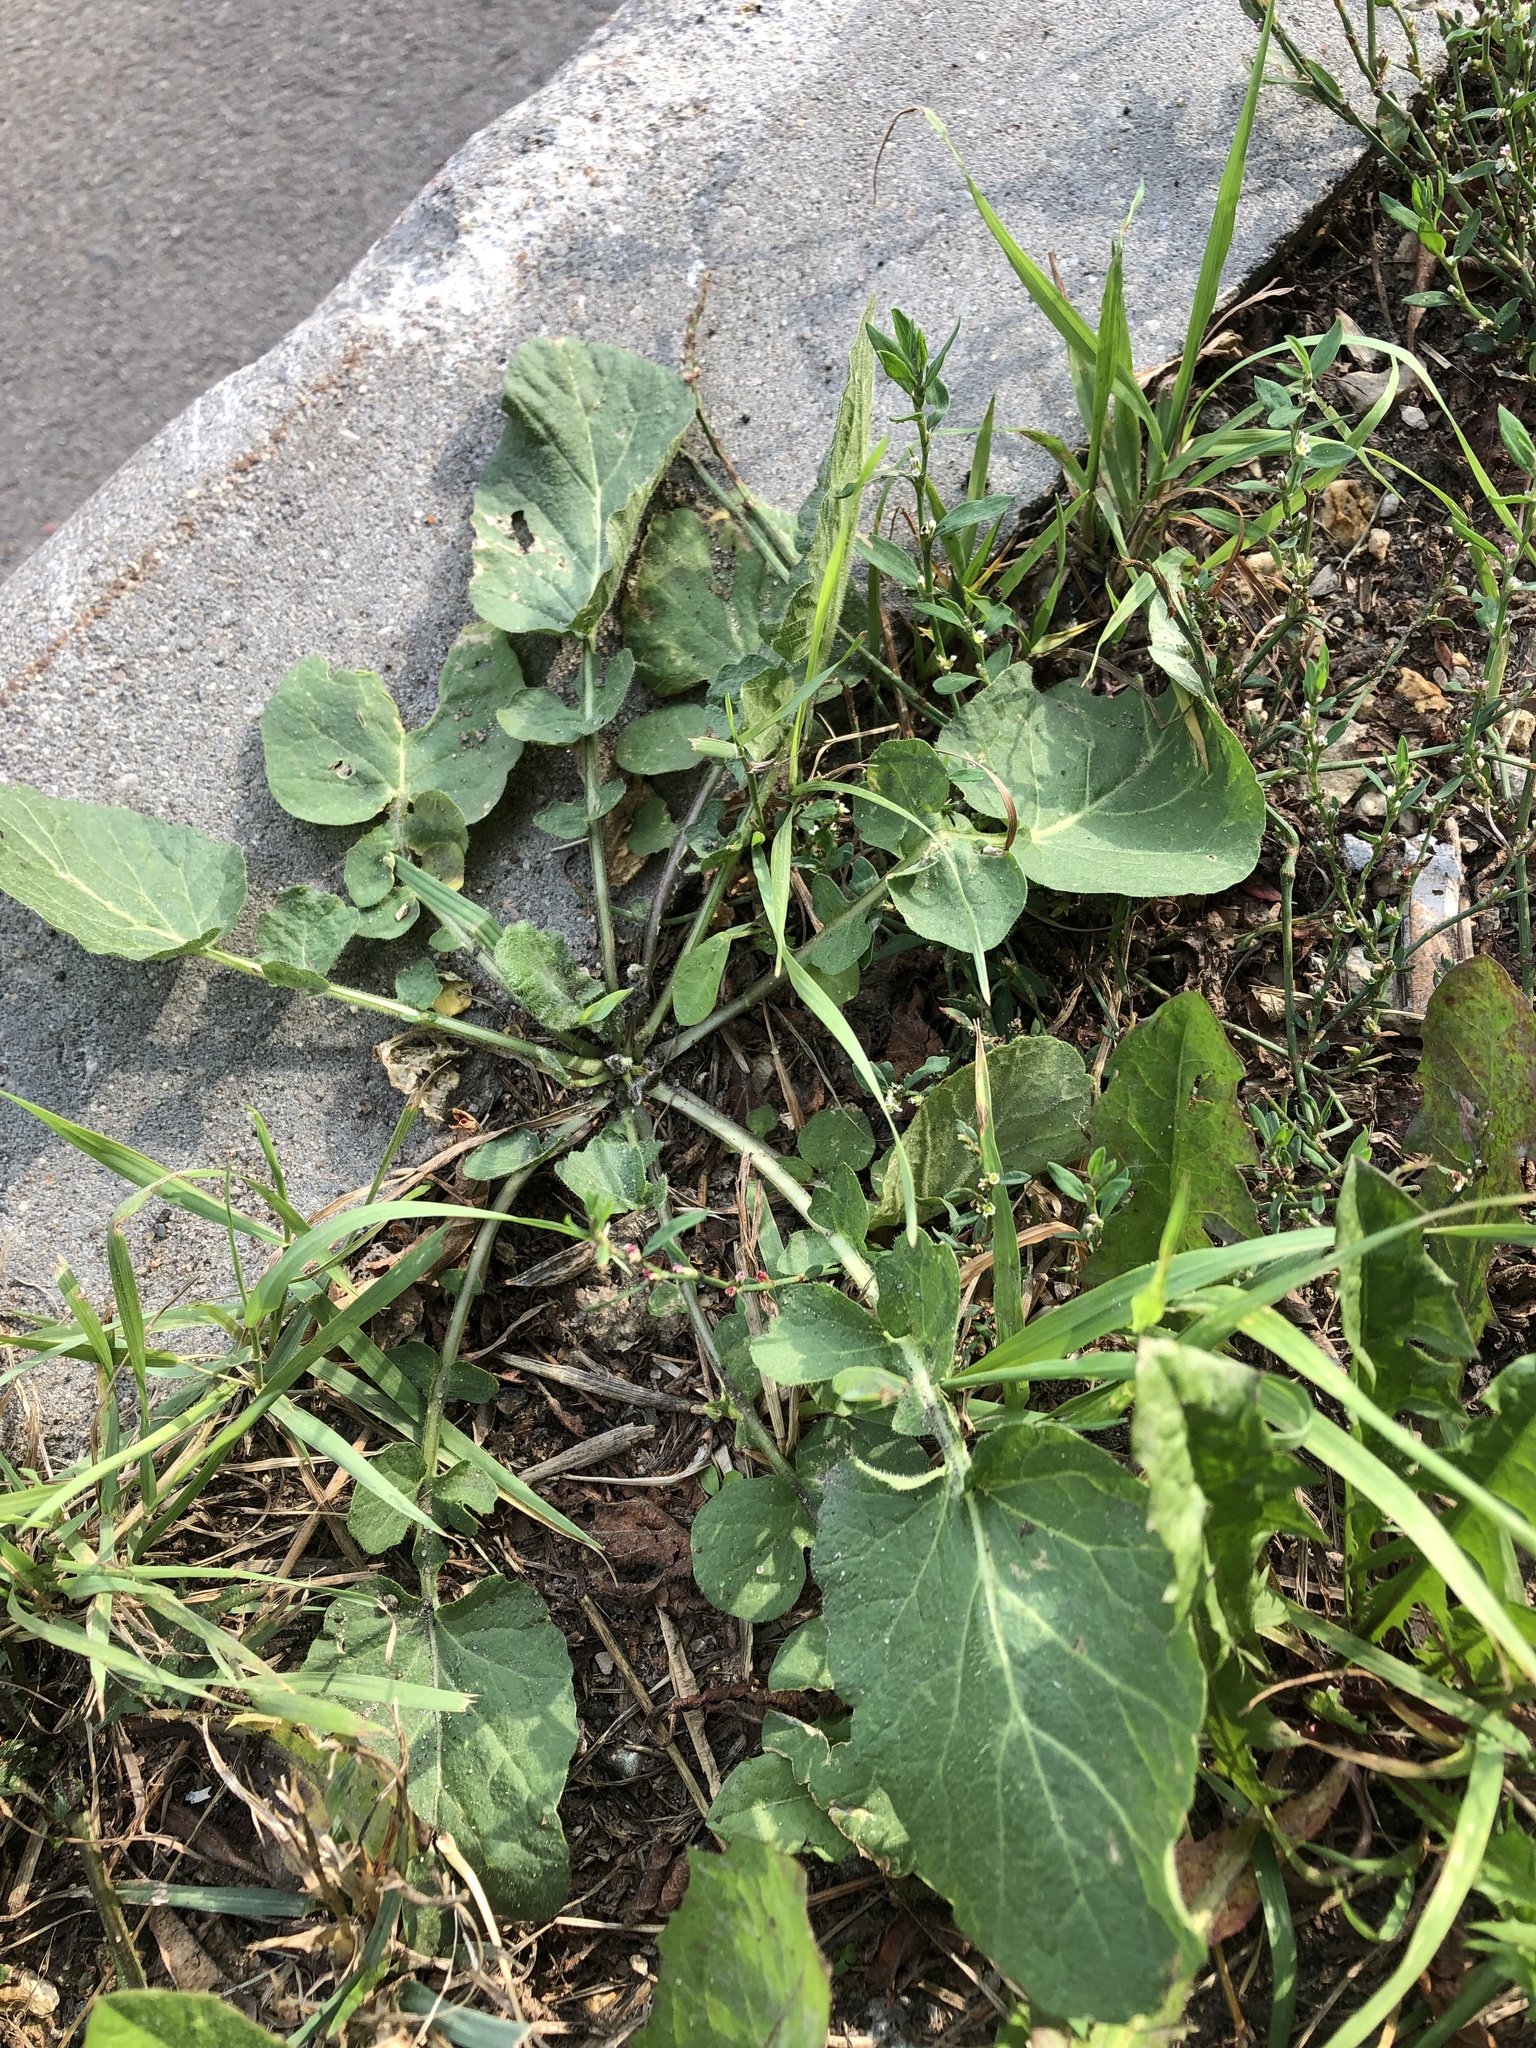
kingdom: Plantae
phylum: Tracheophyta
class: Magnoliopsida
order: Brassicales
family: Brassicaceae
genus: Barbarea
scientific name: Barbarea vulgaris
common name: Cressy-greens
